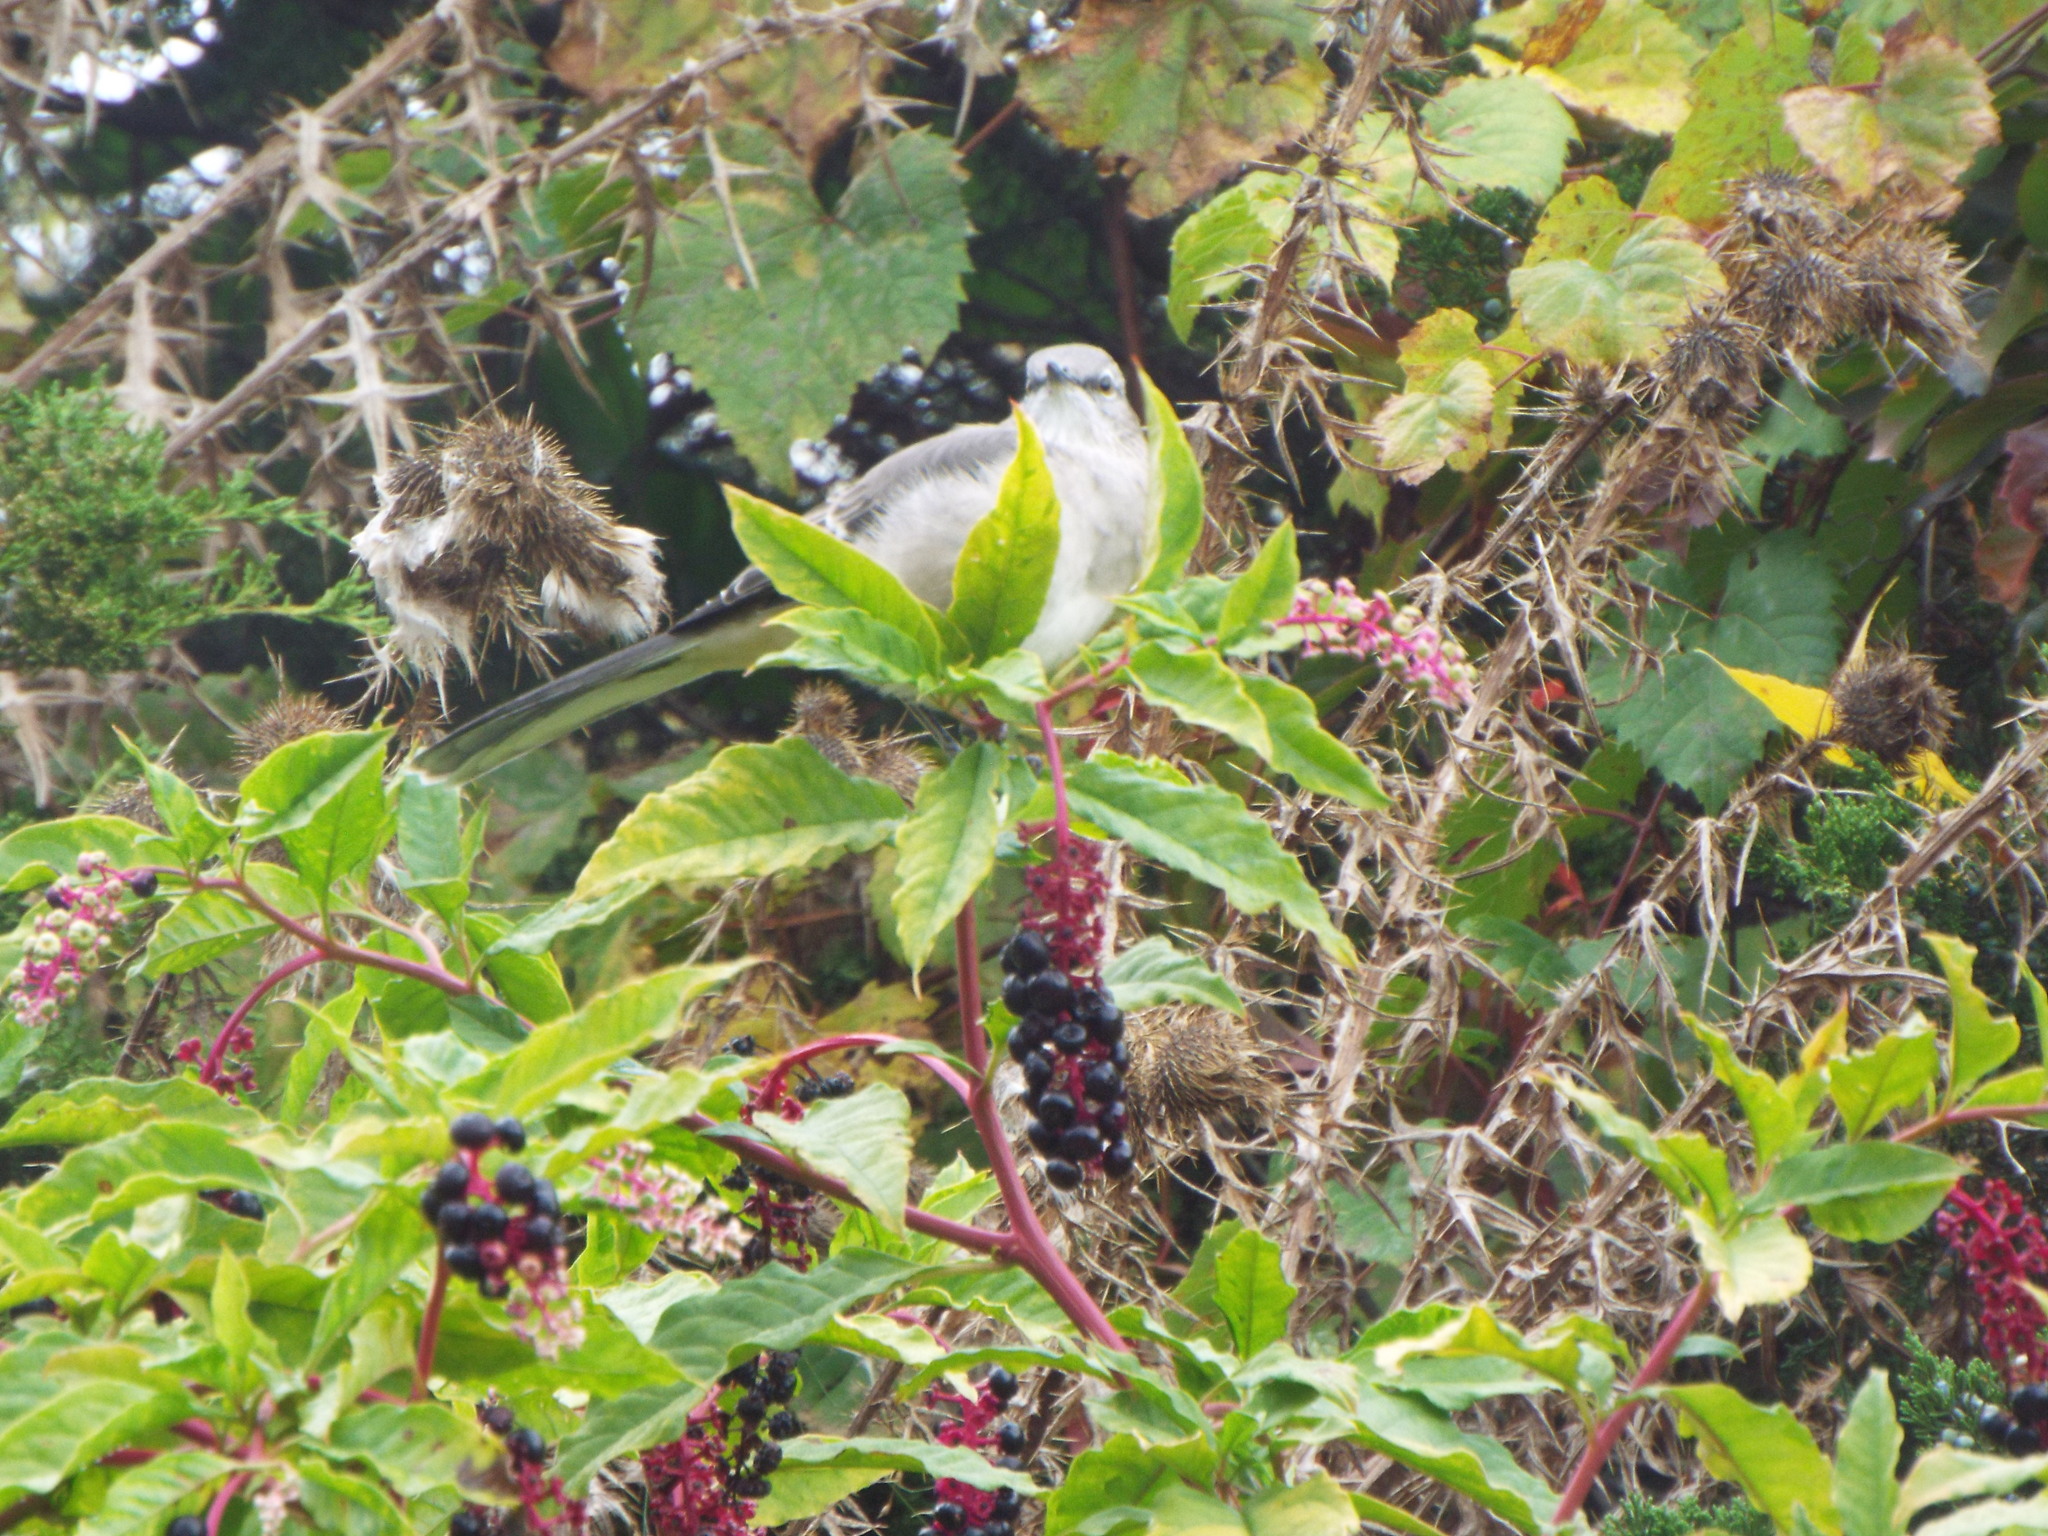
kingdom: Animalia
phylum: Chordata
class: Aves
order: Passeriformes
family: Mimidae
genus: Mimus
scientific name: Mimus polyglottos
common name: Northern mockingbird
